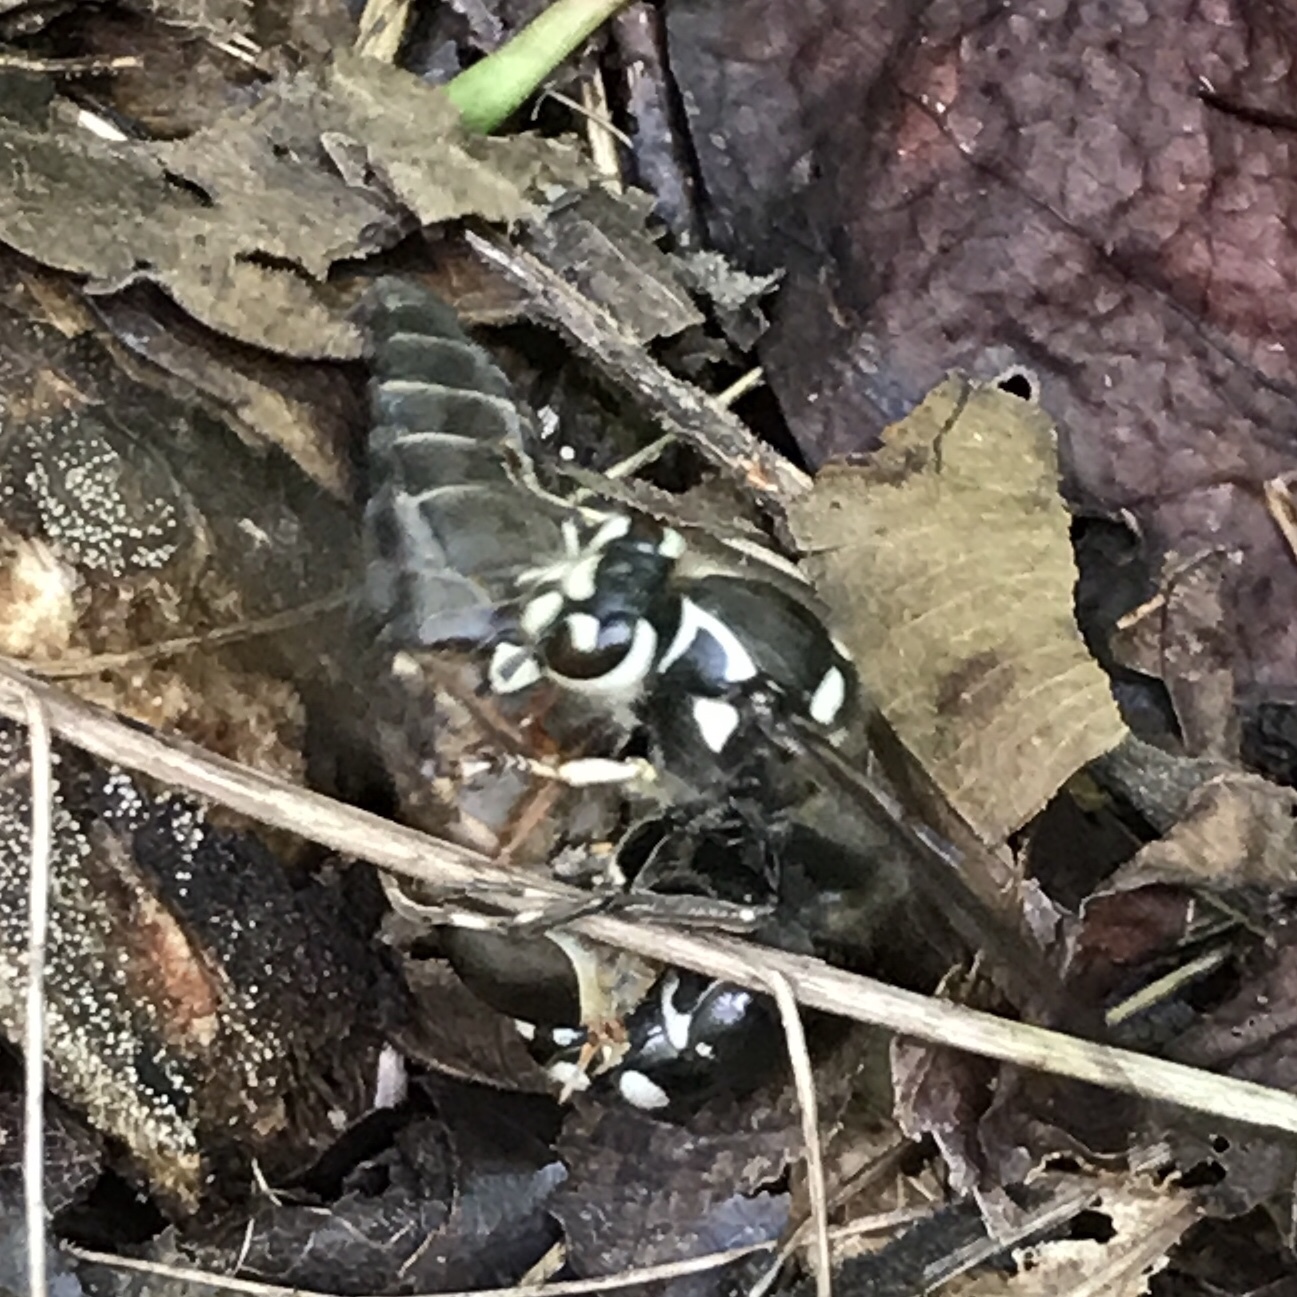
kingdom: Animalia
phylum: Arthropoda
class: Insecta
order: Hymenoptera
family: Vespidae
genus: Dolichovespula
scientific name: Dolichovespula maculata
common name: Bald-faced hornet
